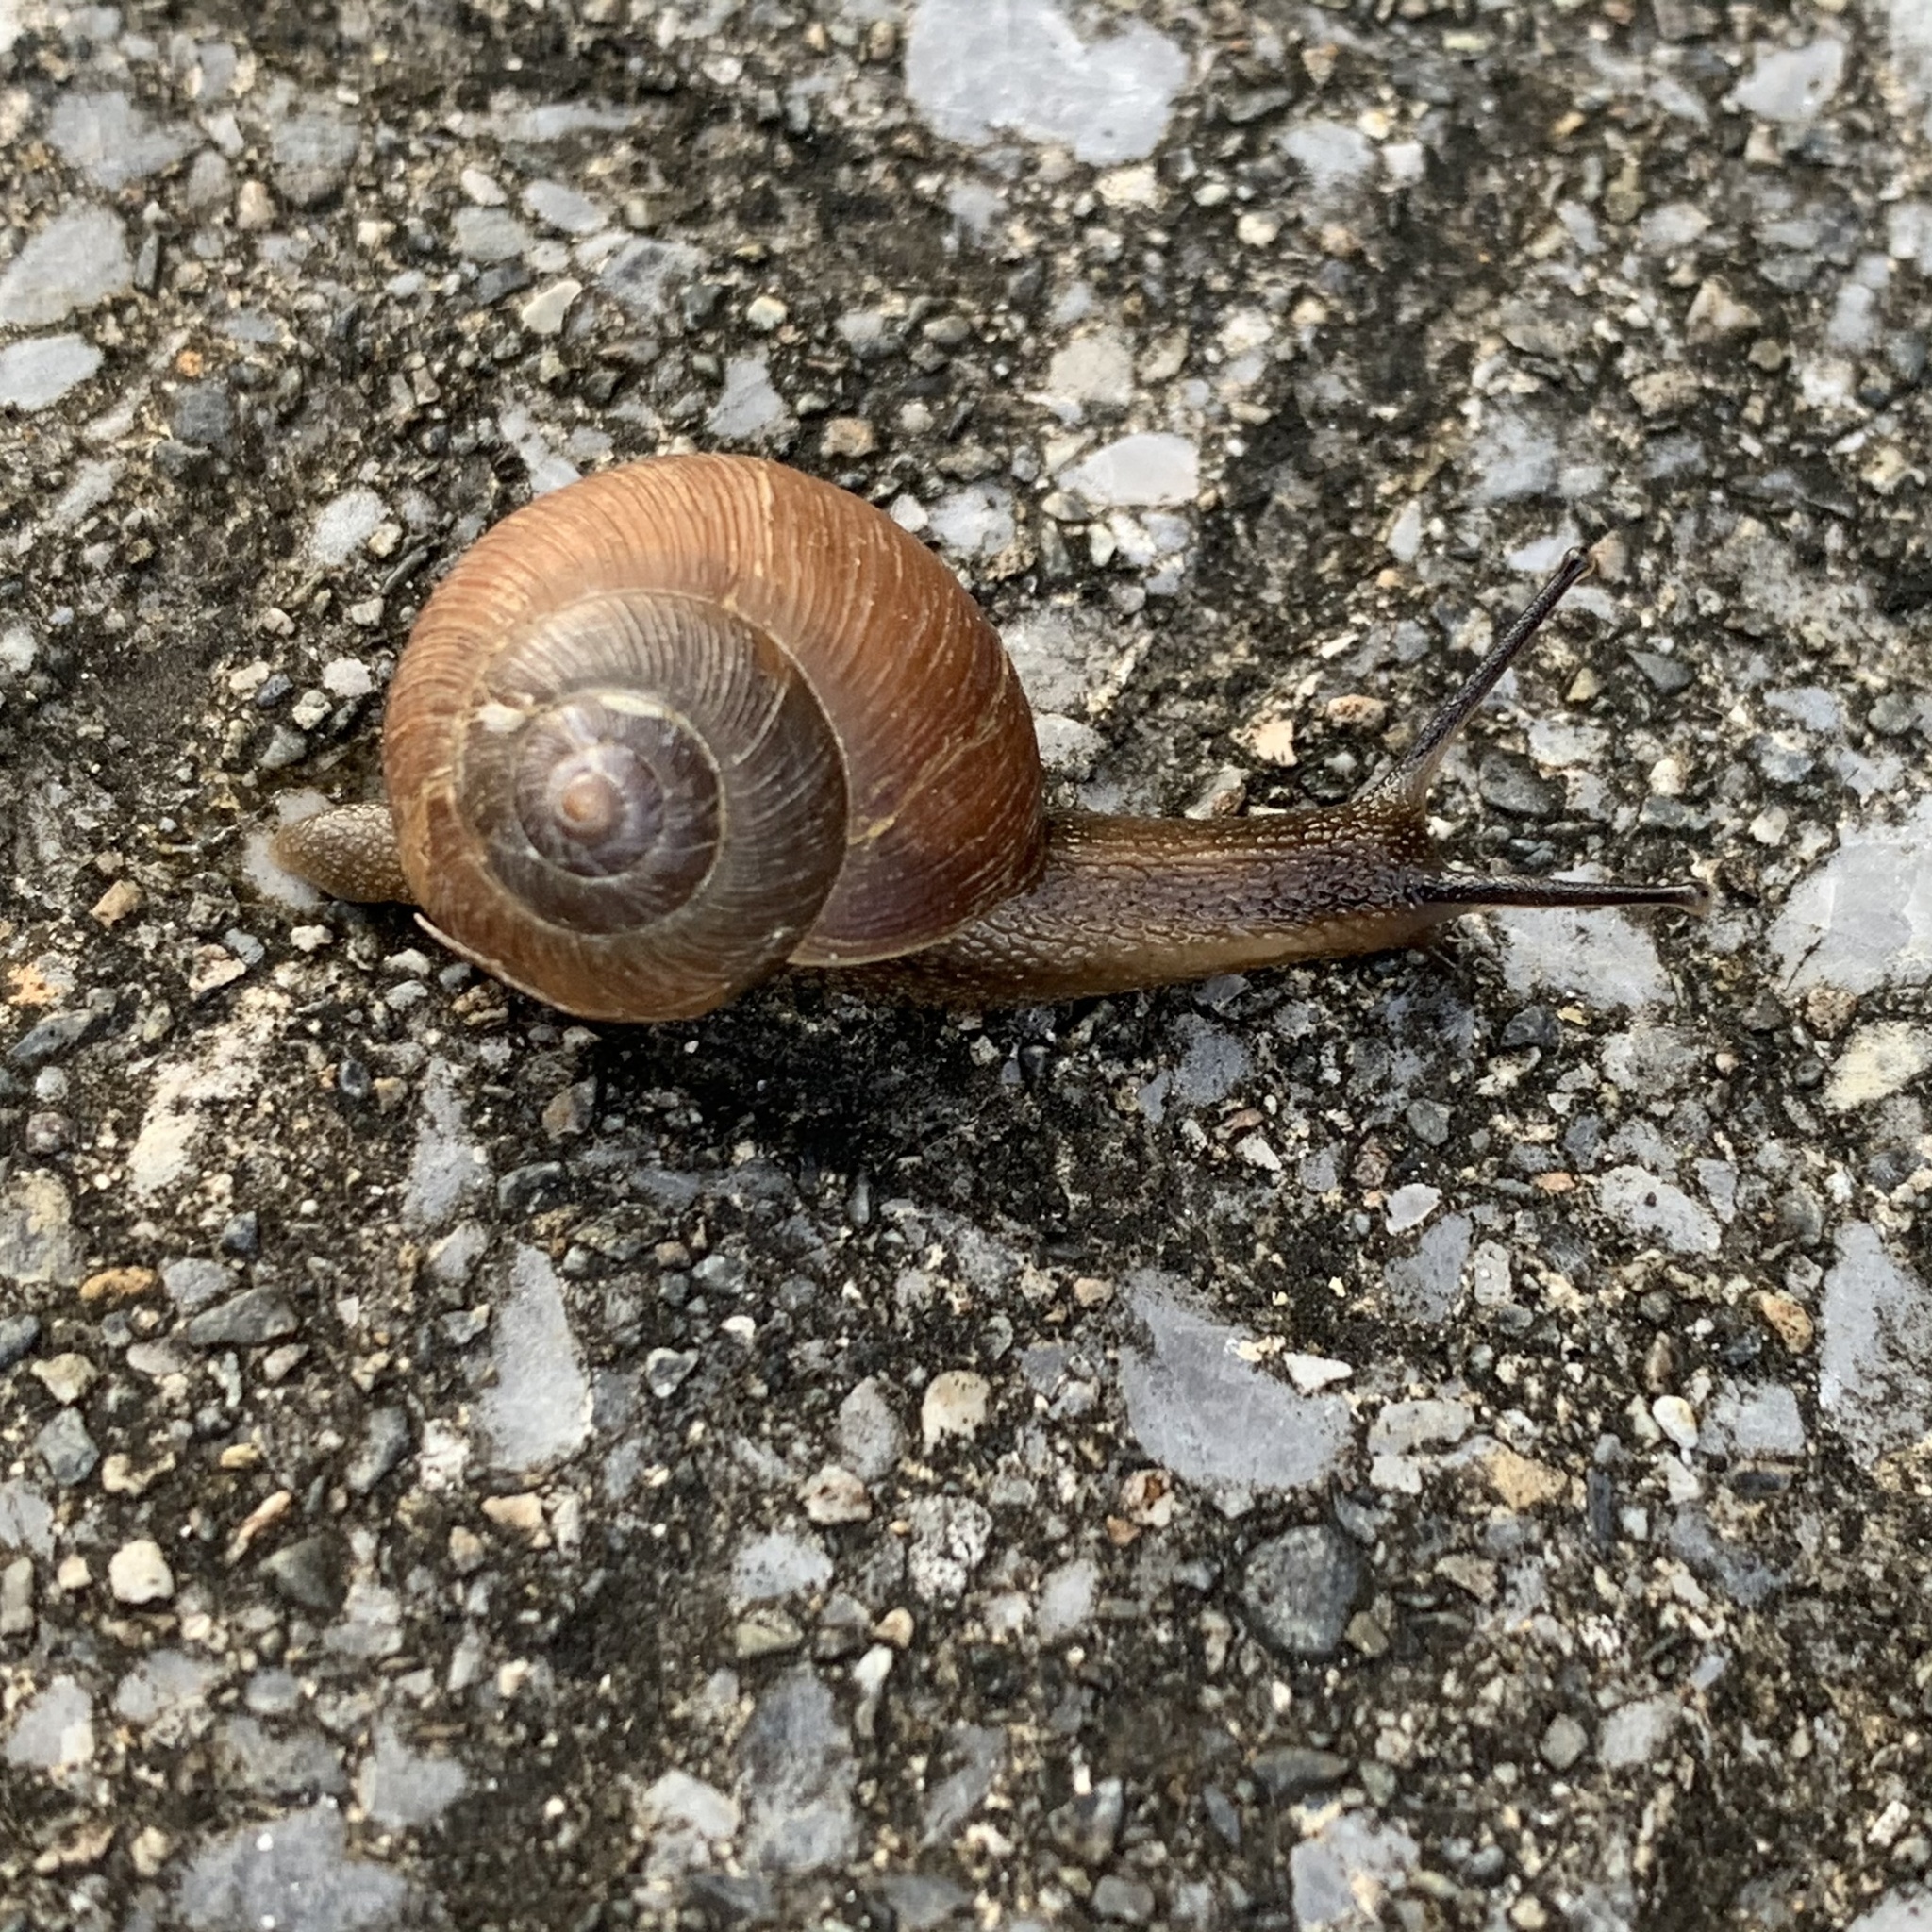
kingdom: Animalia
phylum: Mollusca
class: Gastropoda
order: Stylommatophora
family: Camaenidae
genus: Acusta
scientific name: Acusta despecta
